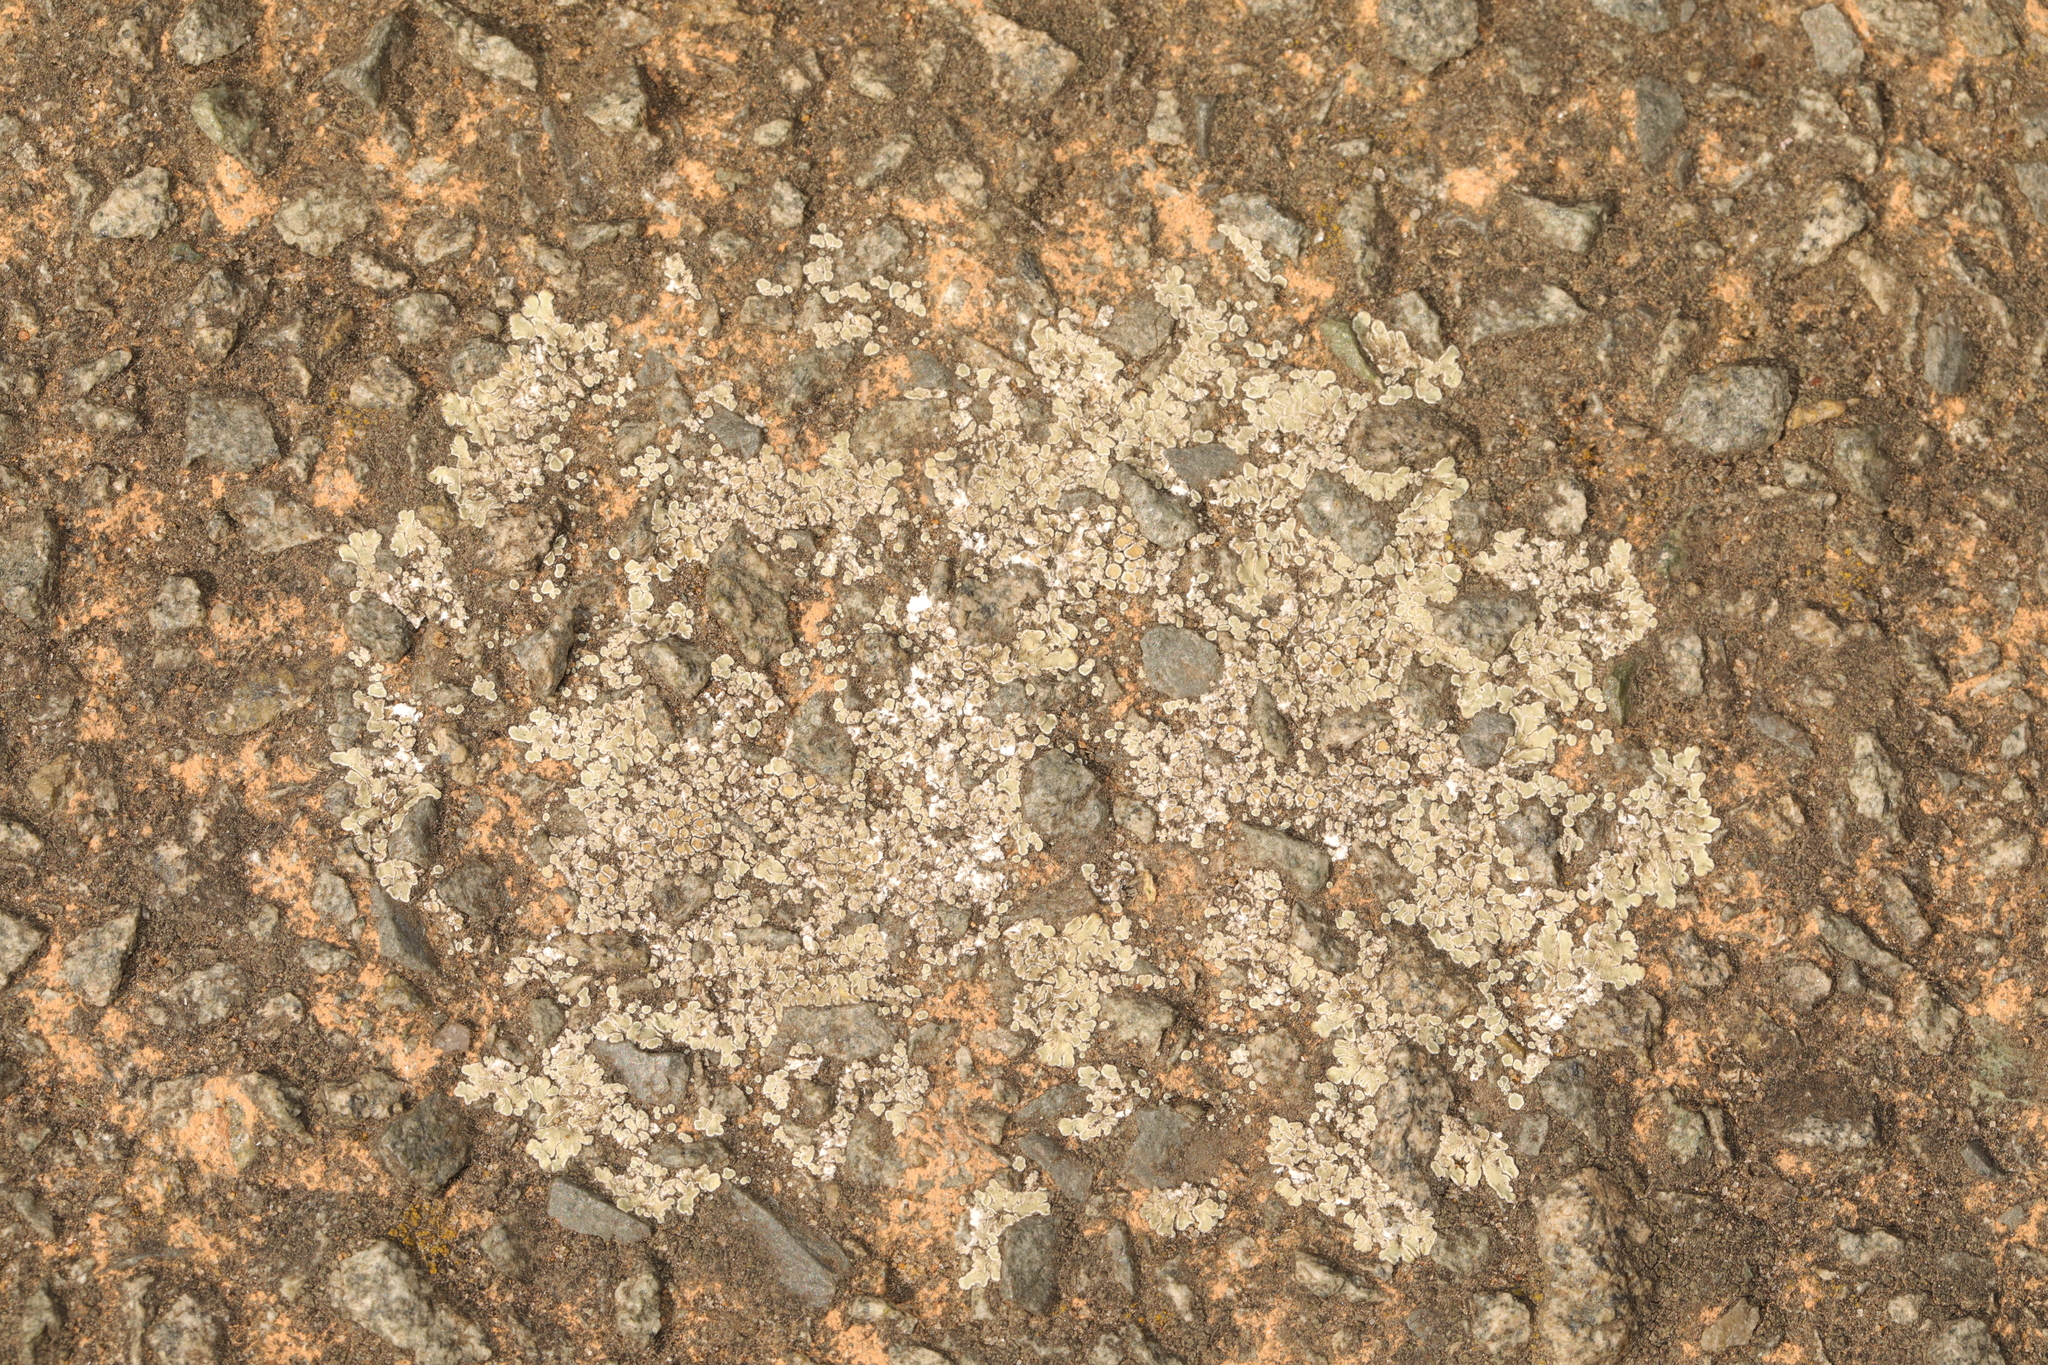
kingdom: Fungi
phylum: Ascomycota
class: Lecanoromycetes
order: Lecanorales
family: Lecanoraceae
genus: Protoparmeliopsis
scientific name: Protoparmeliopsis muralis
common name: Stonewall rim lichen
